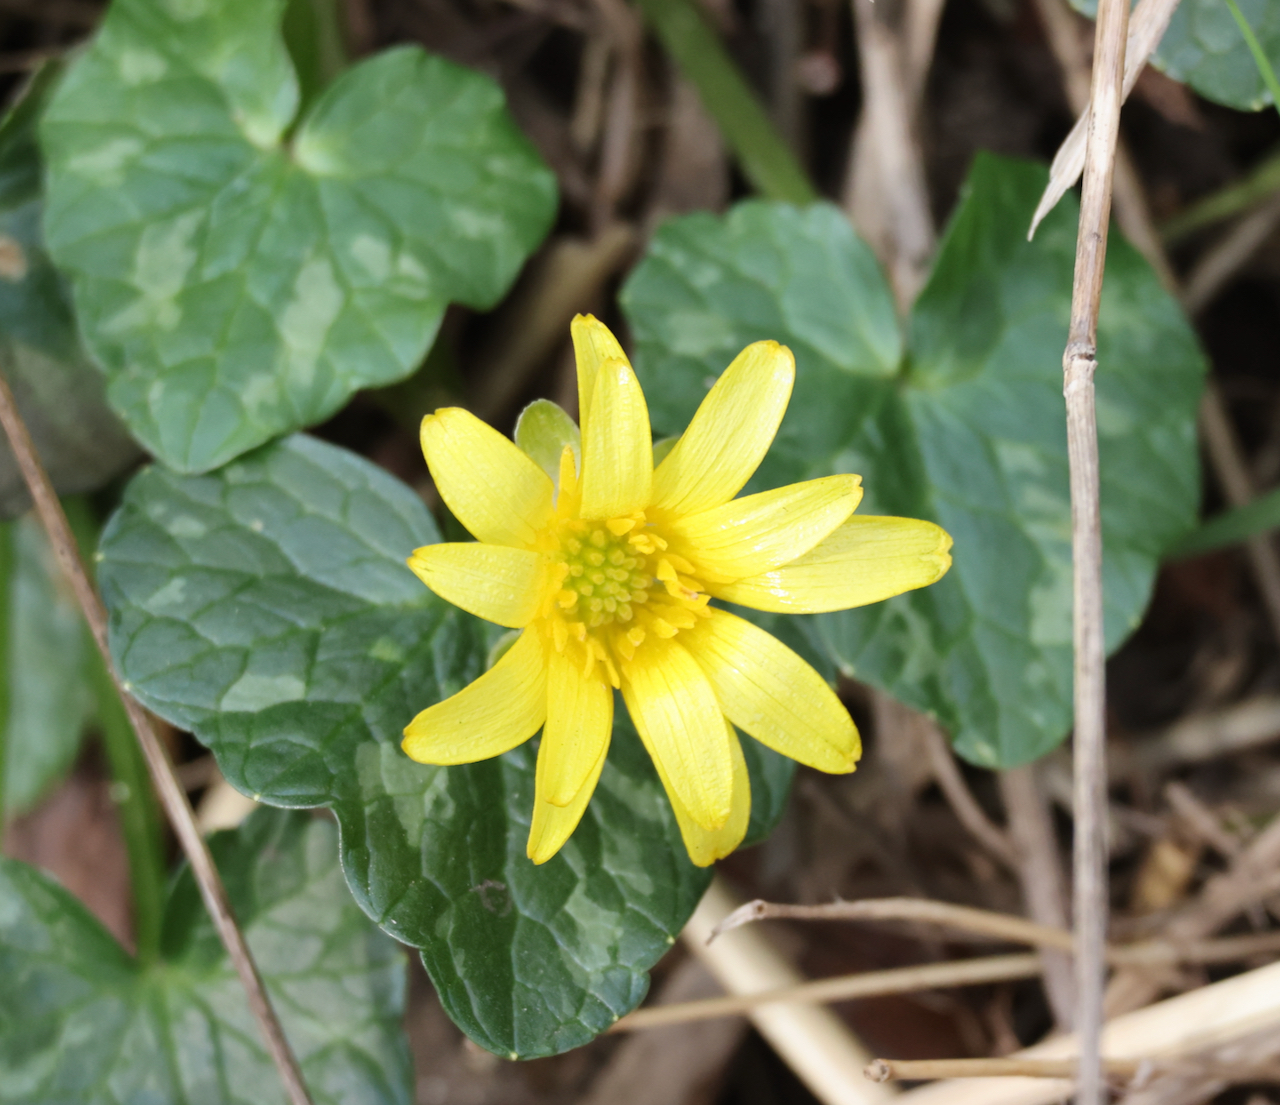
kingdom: Plantae
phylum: Tracheophyta
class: Magnoliopsida
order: Ranunculales
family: Ranunculaceae
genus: Ficaria
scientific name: Ficaria verna
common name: Lesser celandine
